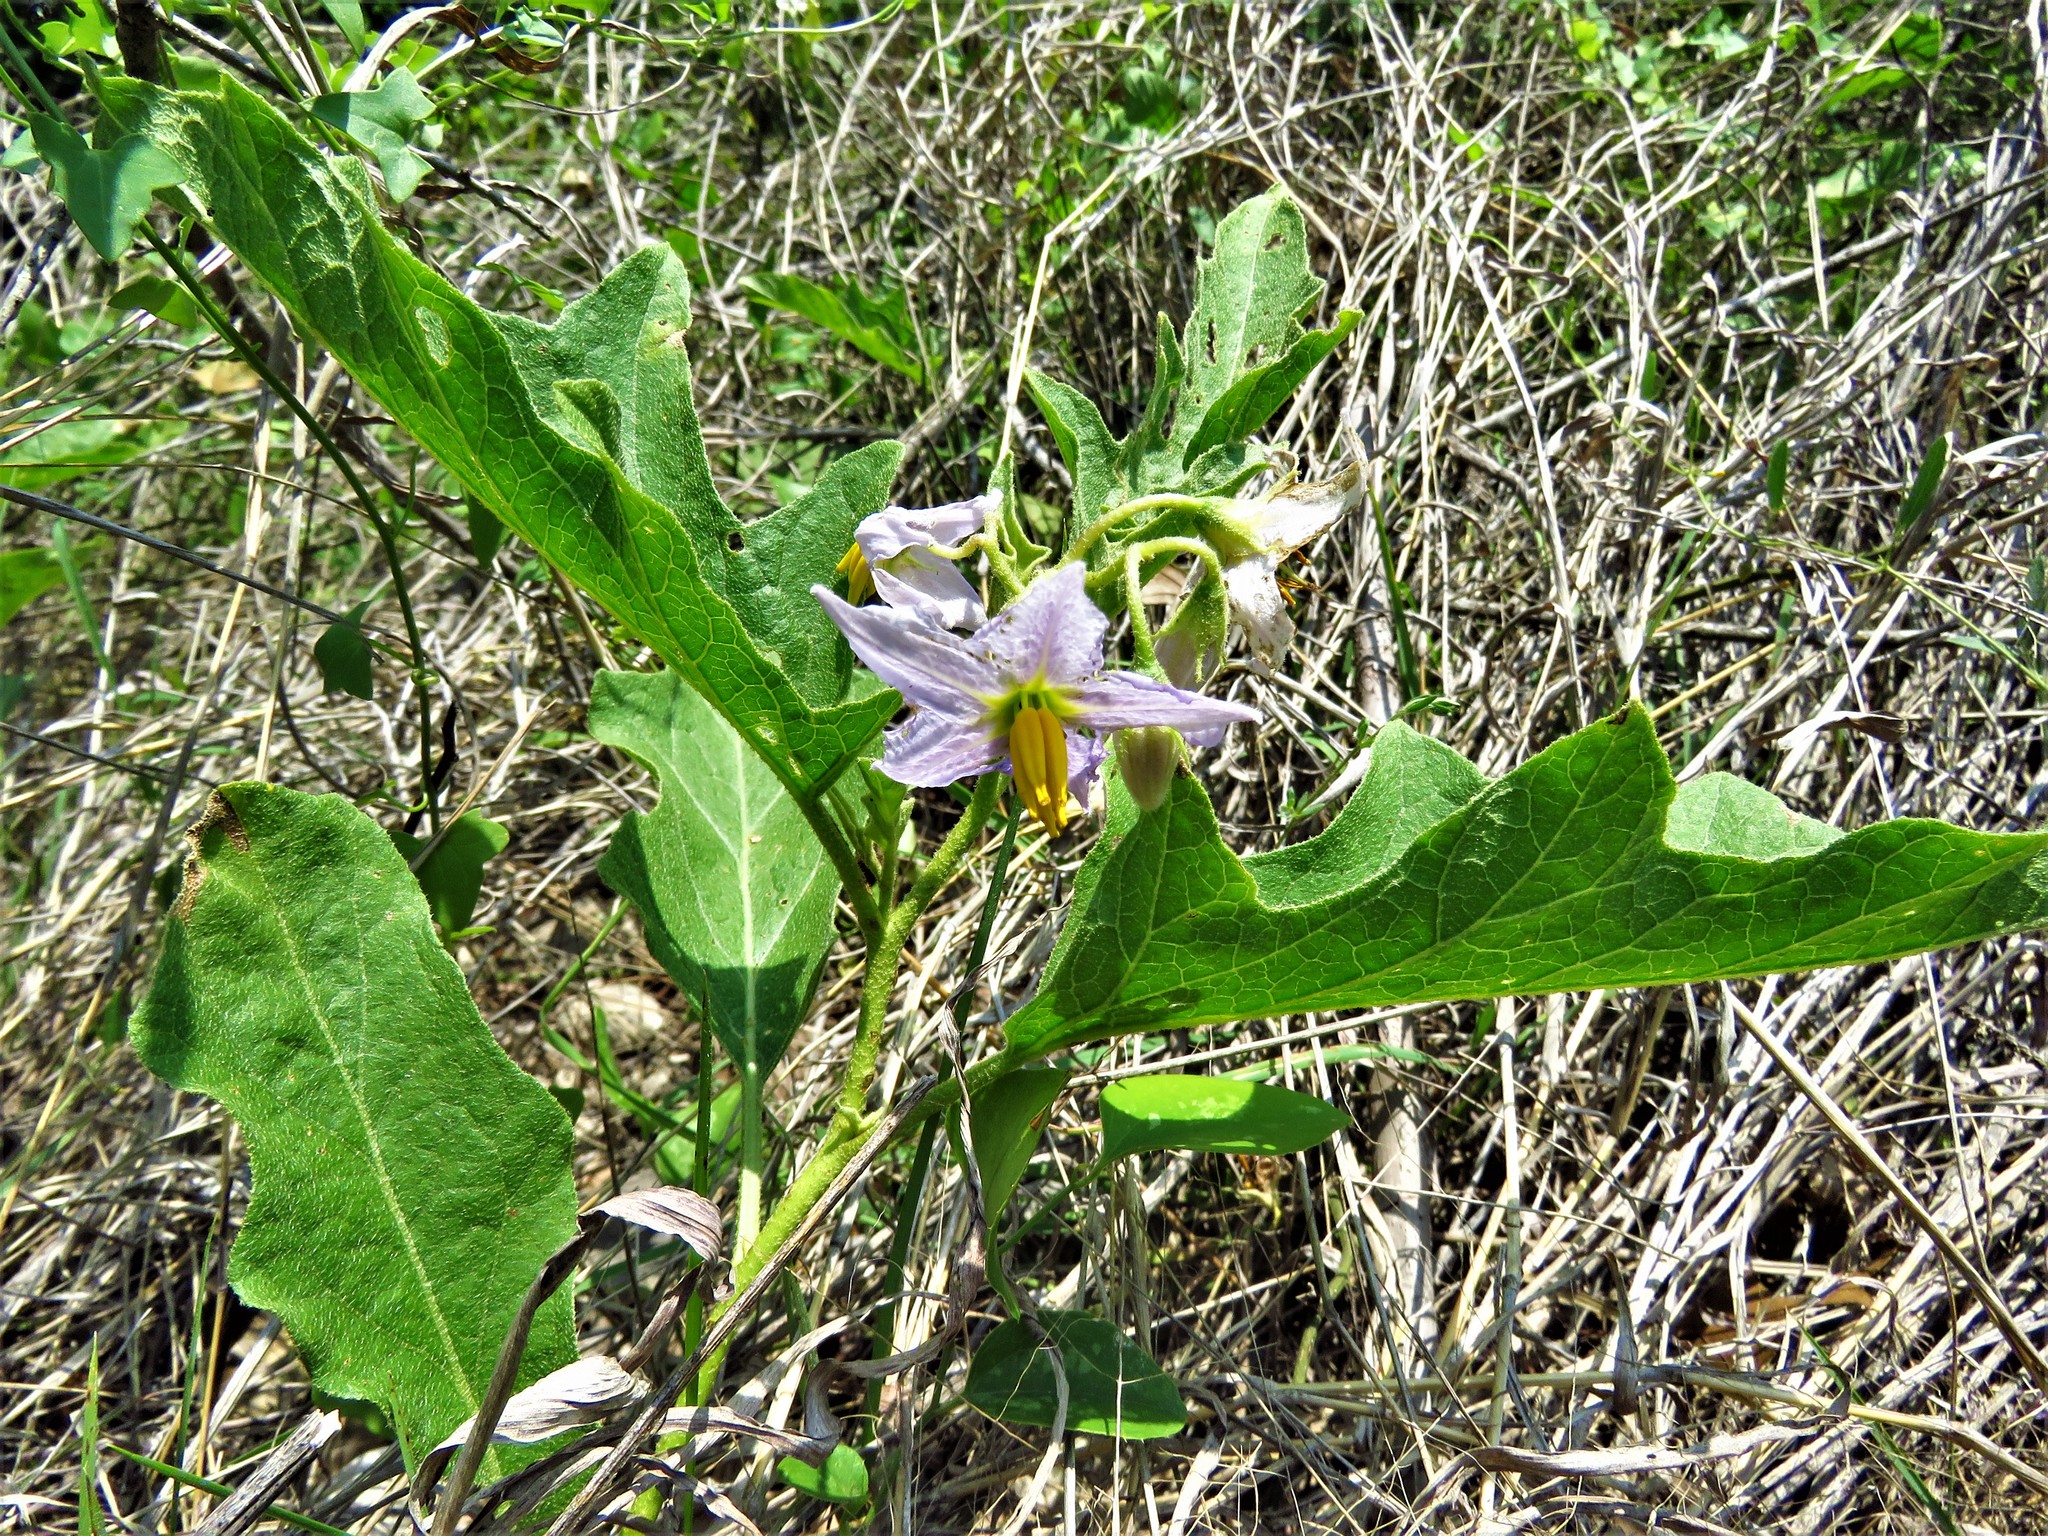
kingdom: Plantae
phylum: Tracheophyta
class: Magnoliopsida
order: Solanales
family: Solanaceae
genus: Solanum
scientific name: Solanum dimidiatum
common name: Carolina horse-nettle
